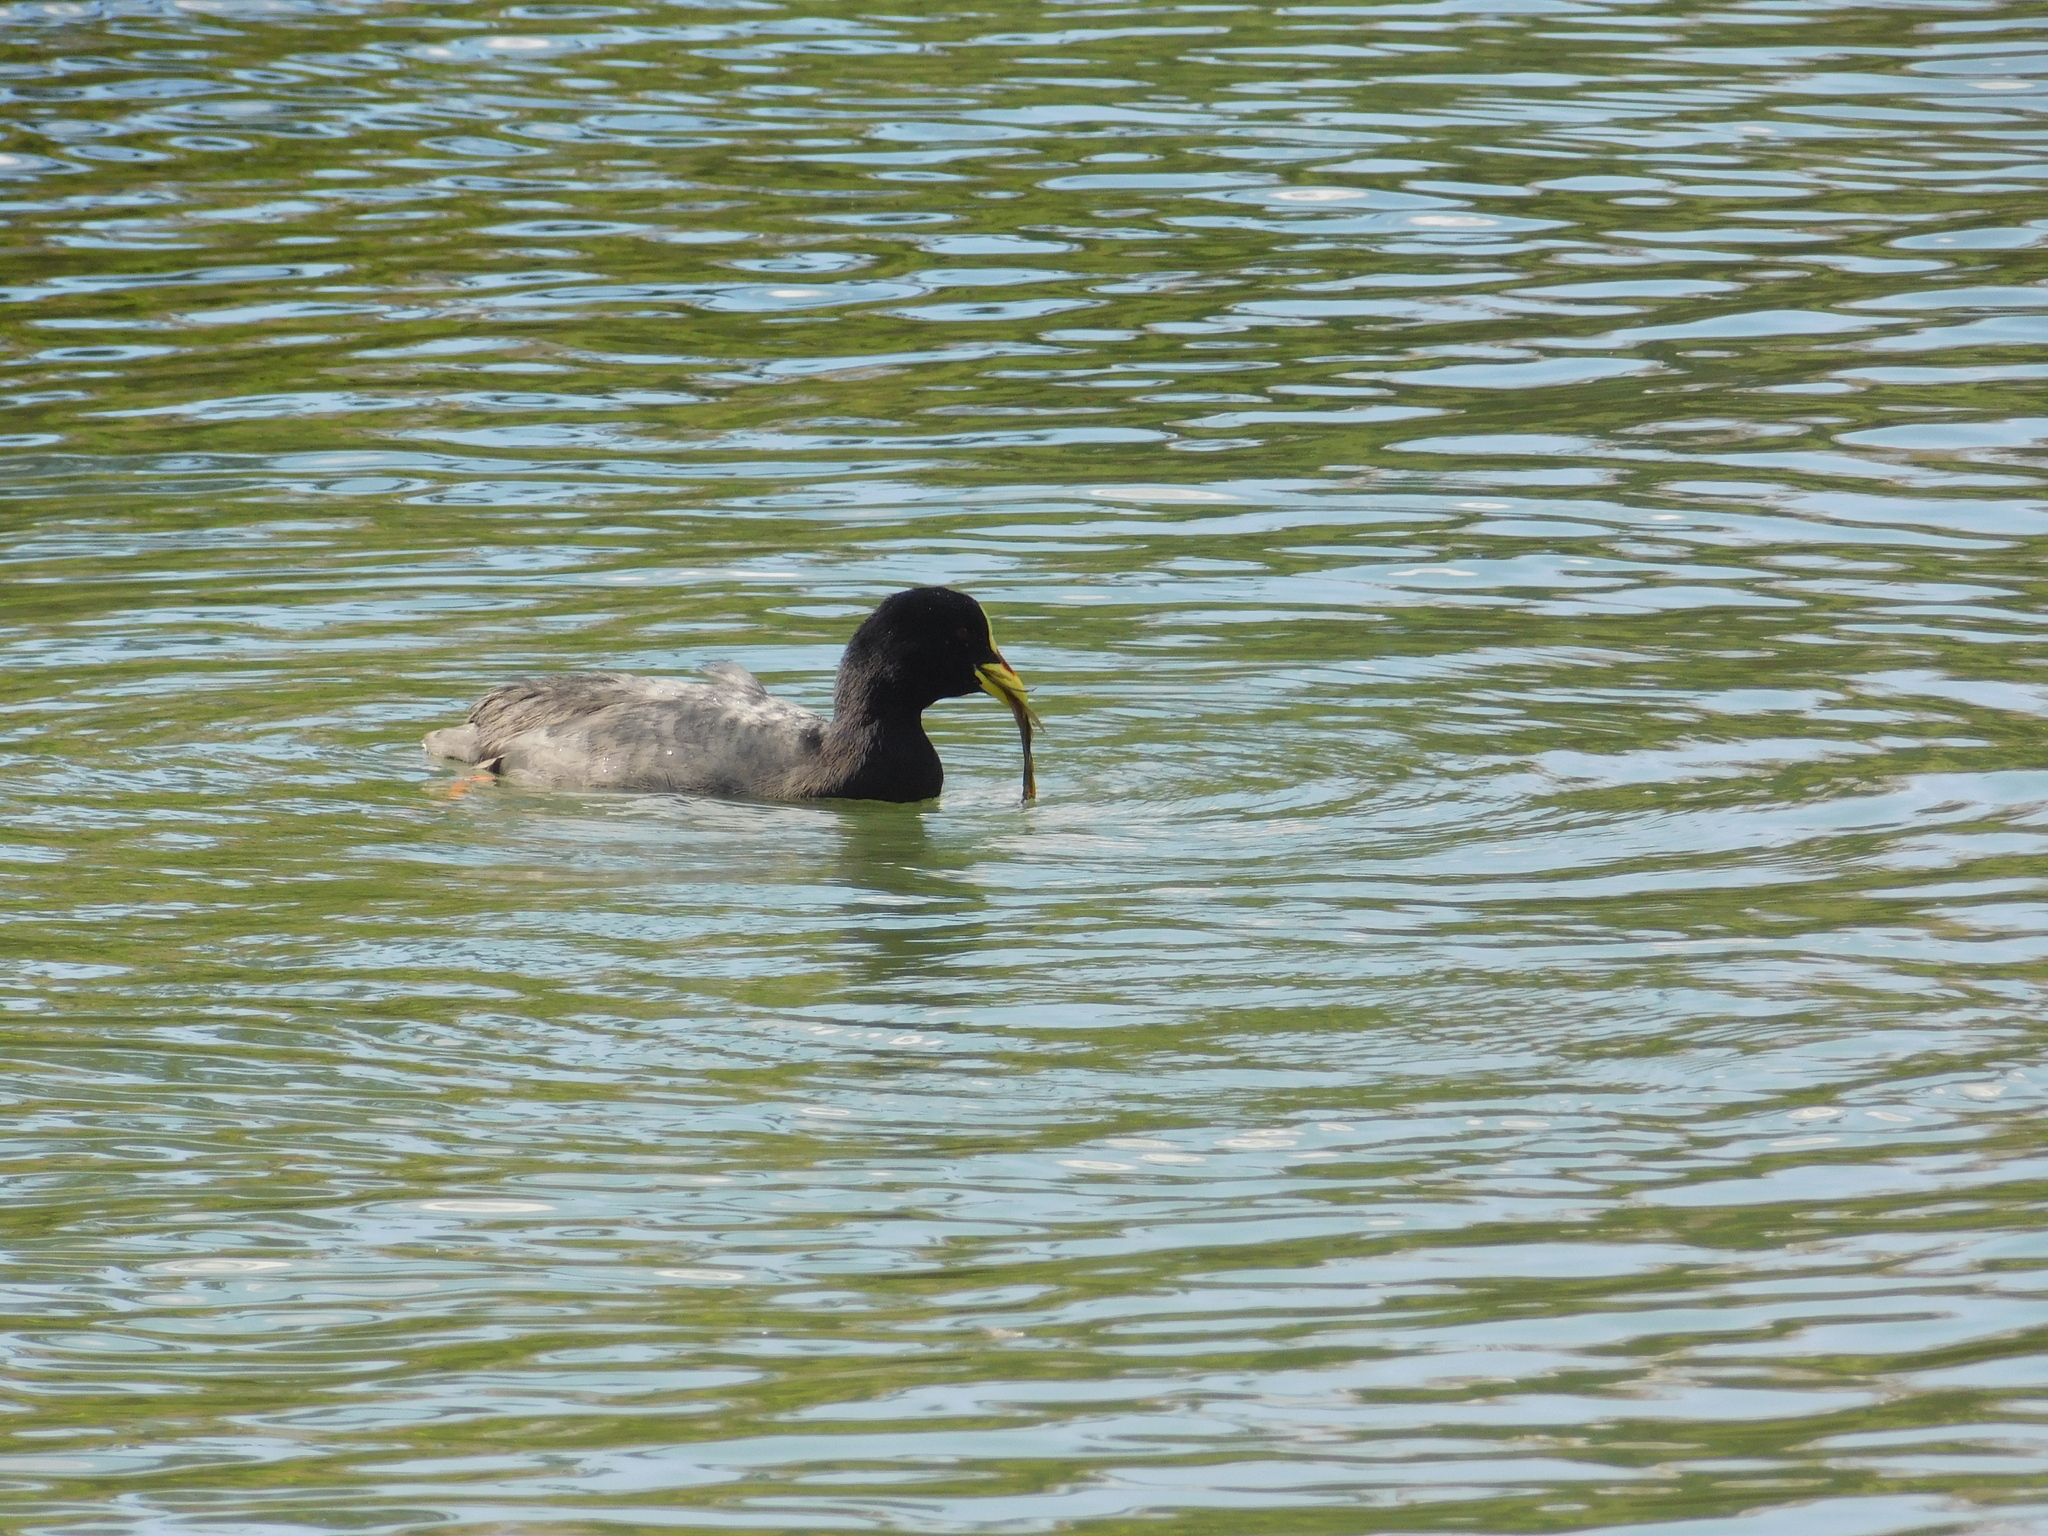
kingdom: Animalia
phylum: Chordata
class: Aves
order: Gruiformes
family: Rallidae
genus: Fulica
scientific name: Fulica armillata
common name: Red-gartered coot
